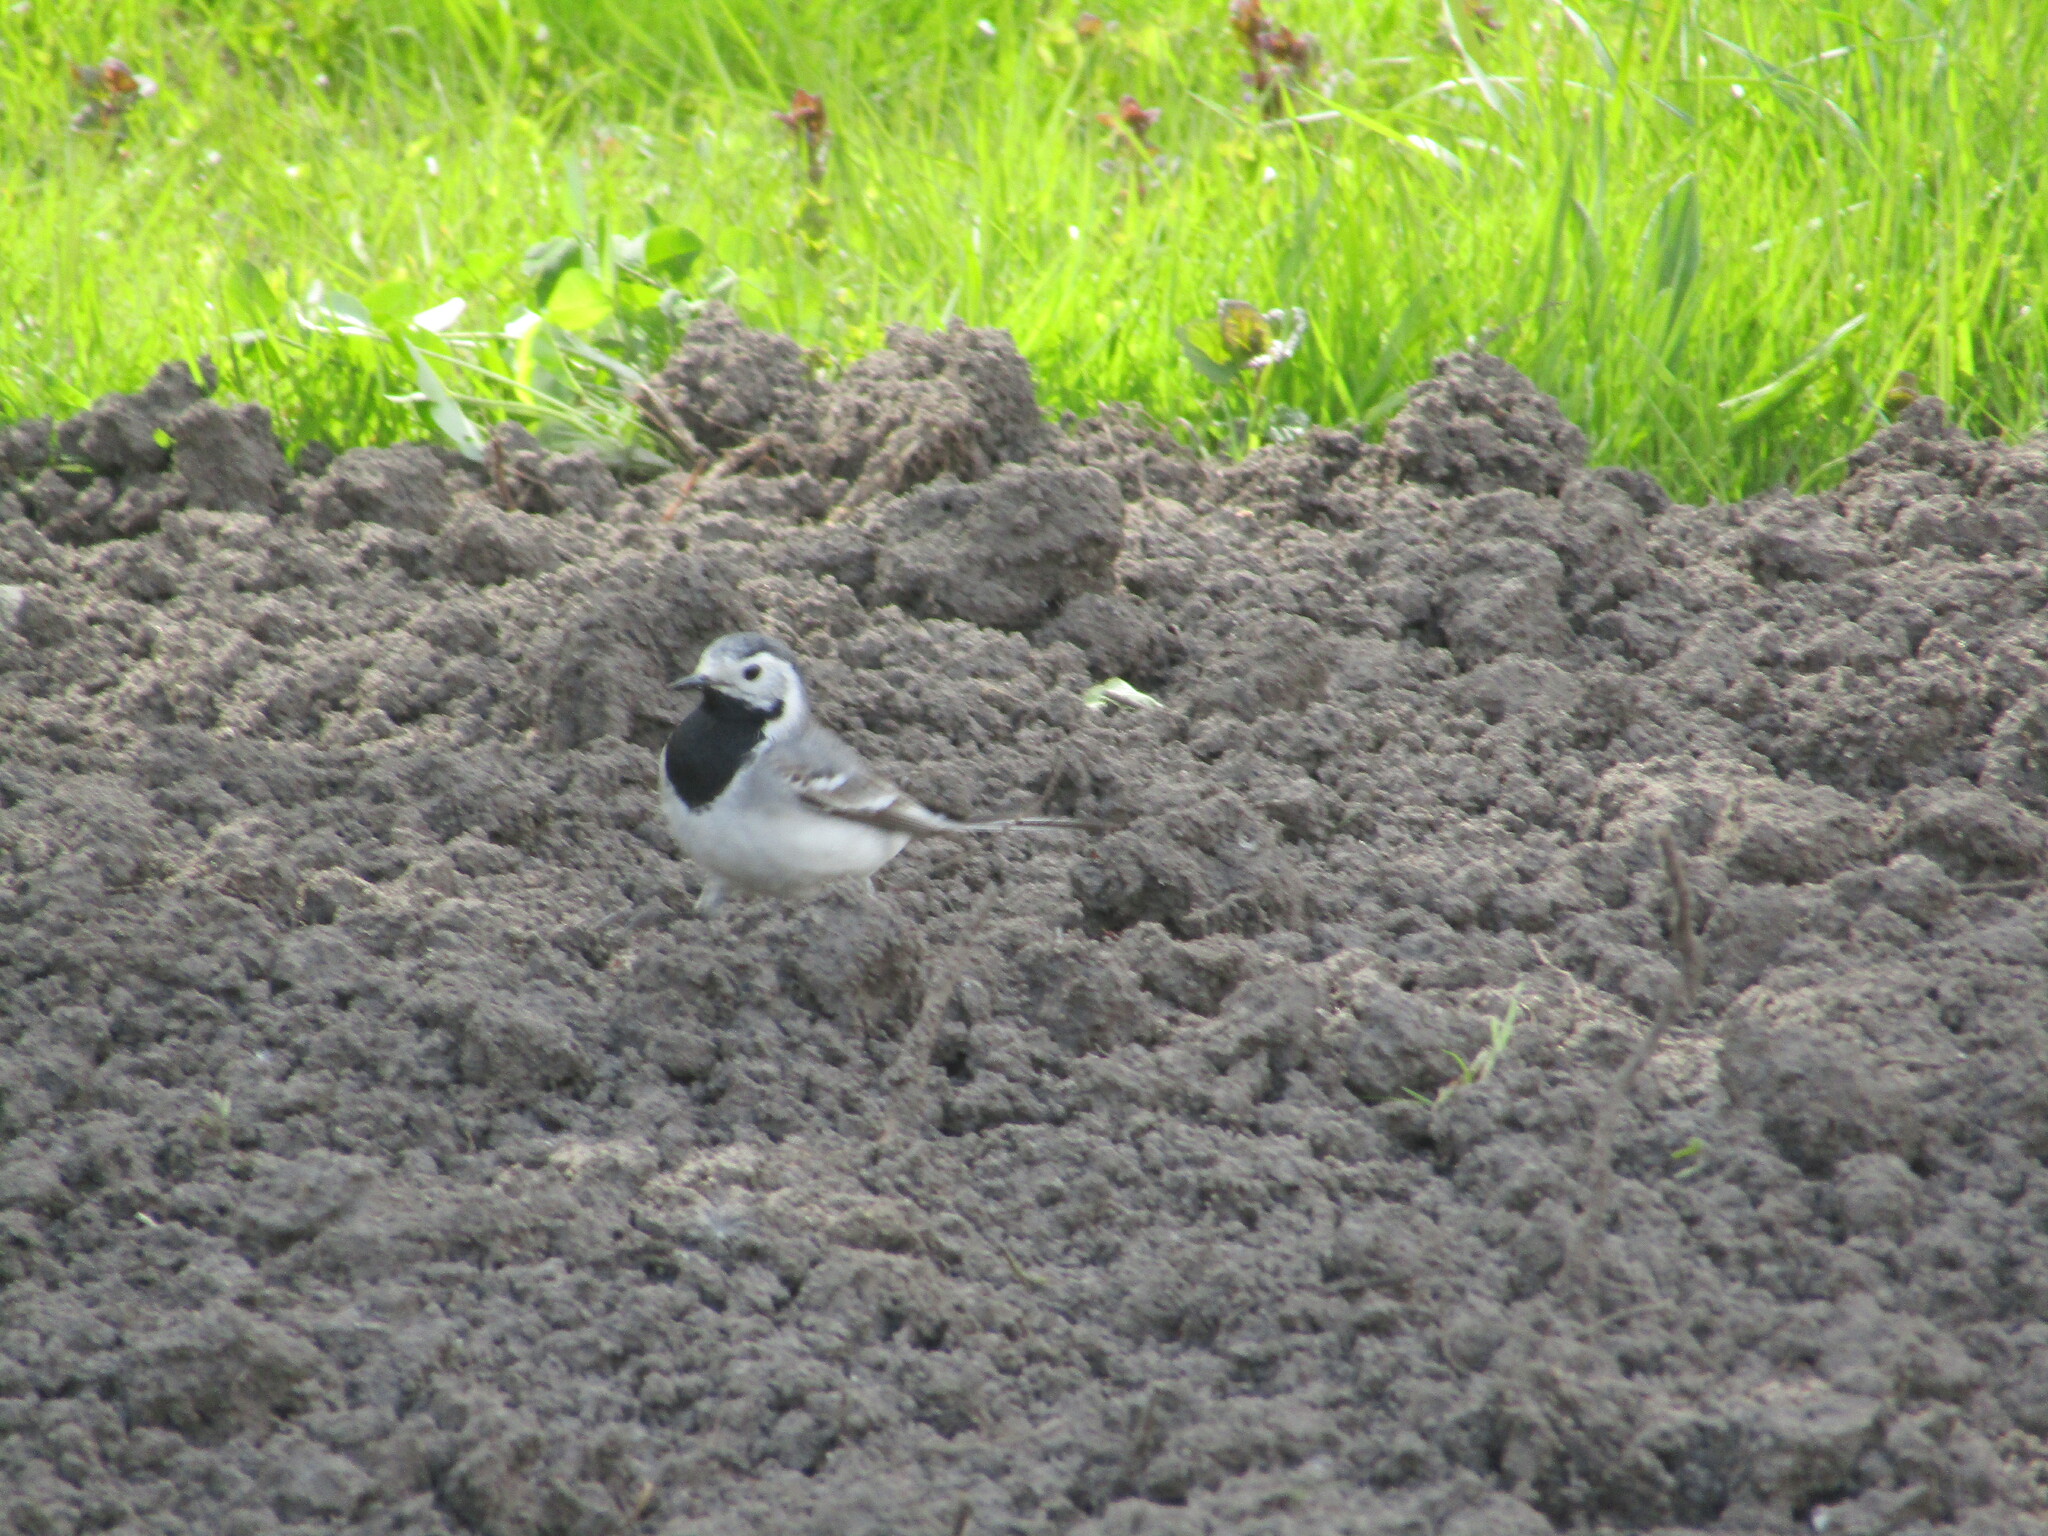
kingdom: Animalia
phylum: Chordata
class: Aves
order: Passeriformes
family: Motacillidae
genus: Motacilla
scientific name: Motacilla alba
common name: White wagtail
